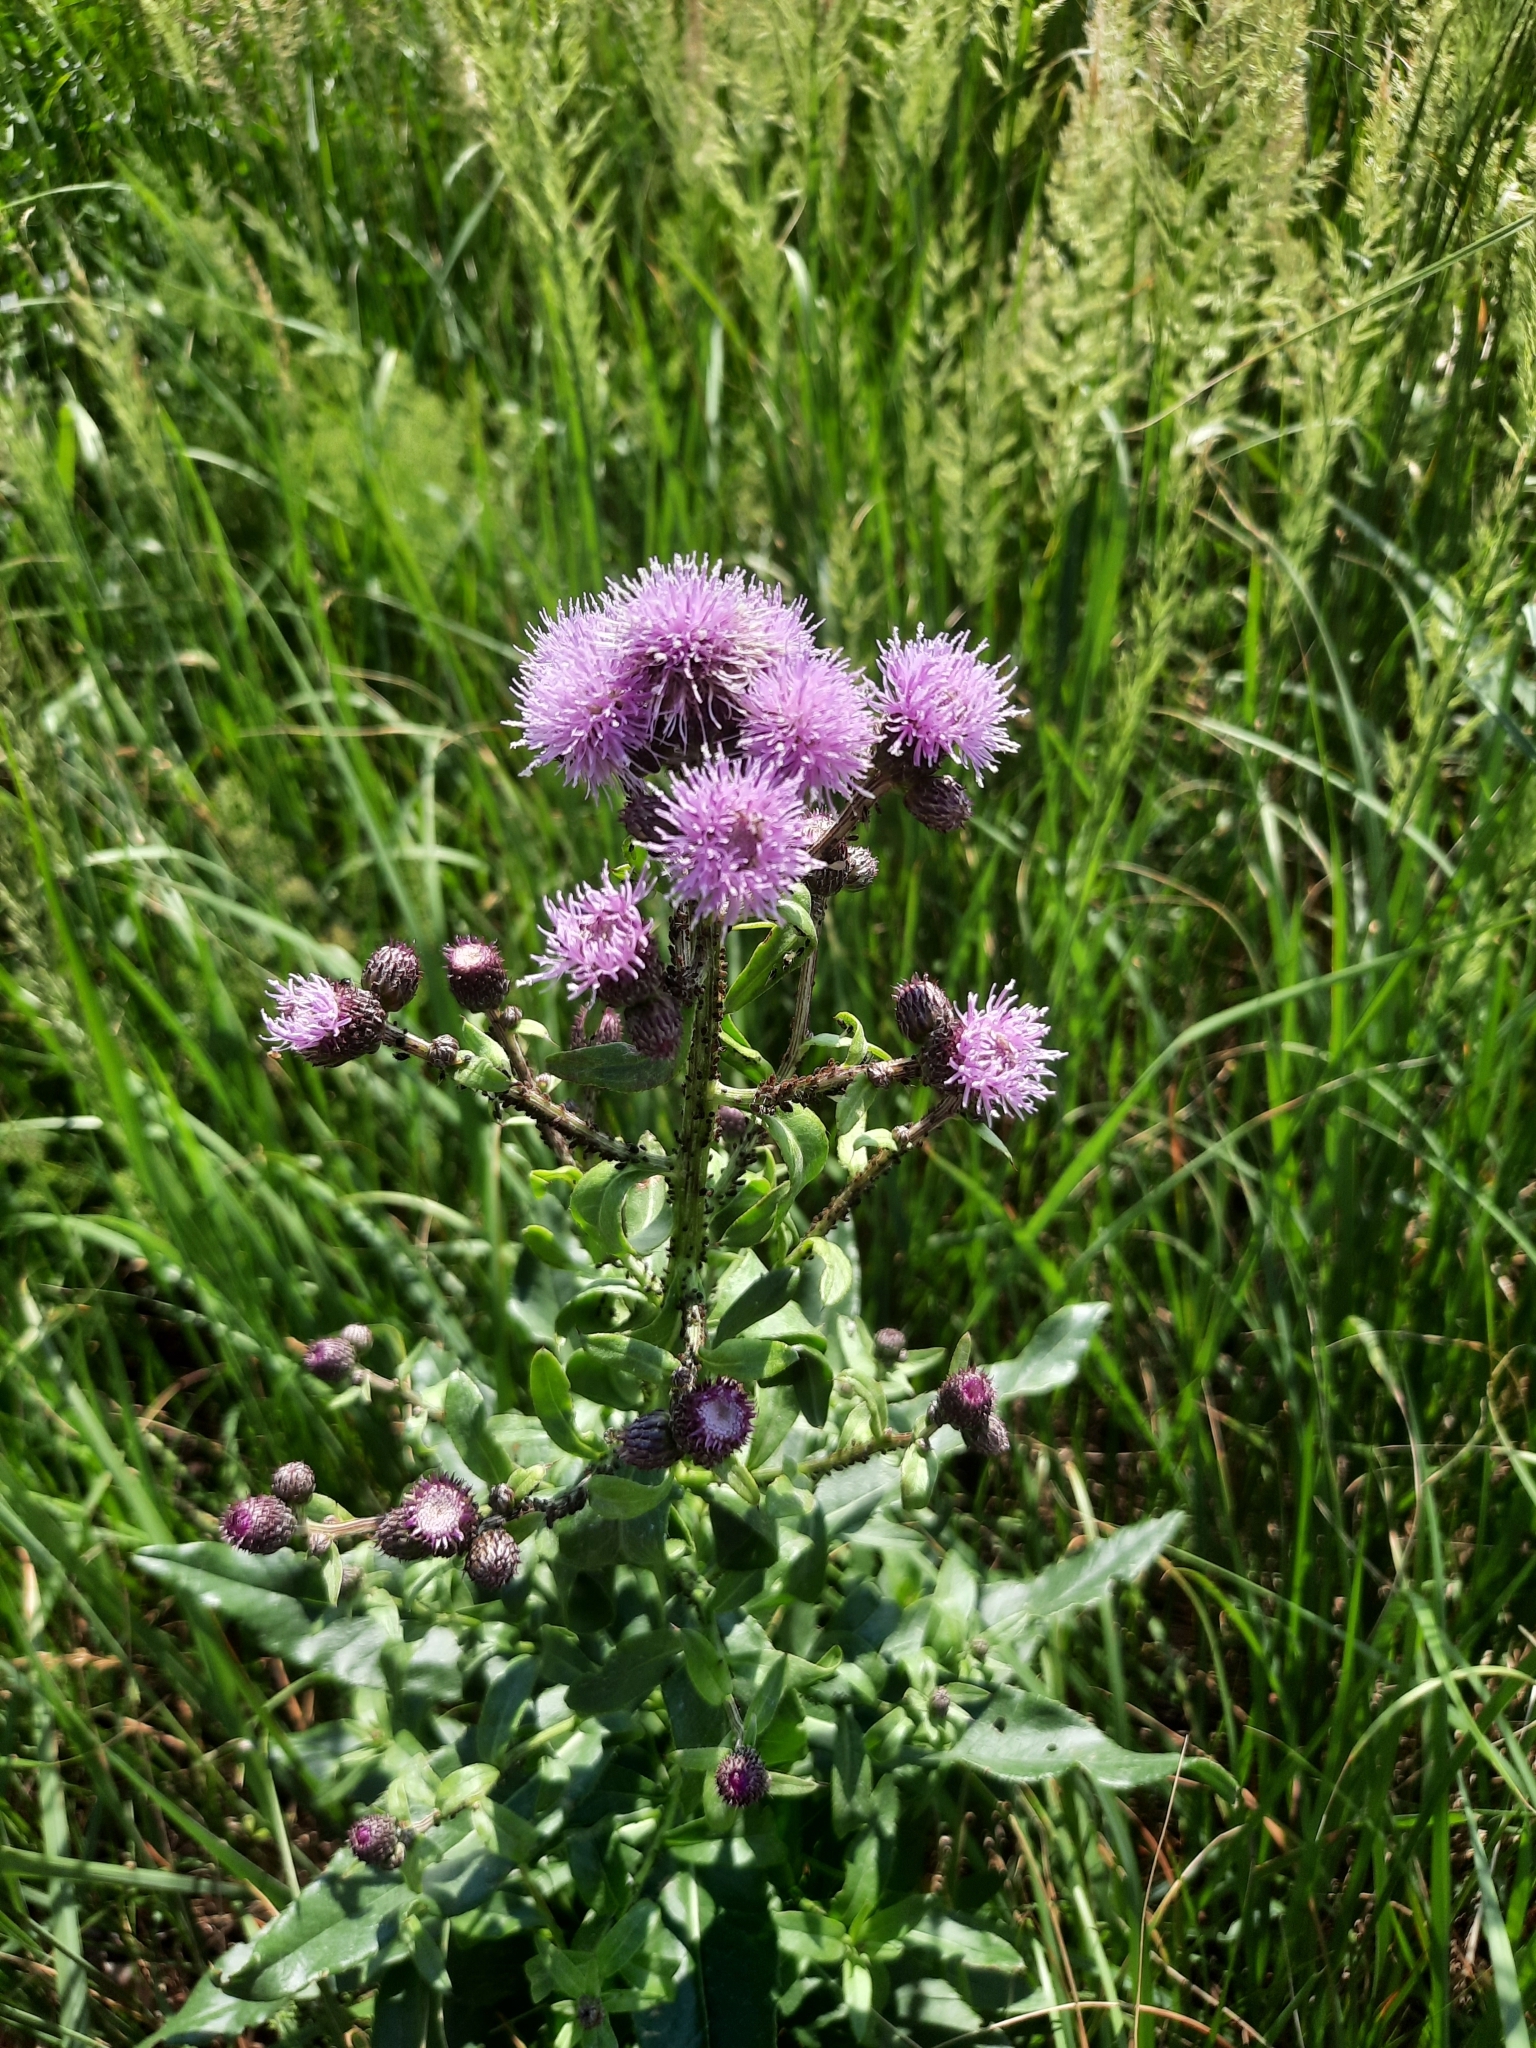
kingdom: Plantae
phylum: Tracheophyta
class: Magnoliopsida
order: Asterales
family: Asteraceae
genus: Cirsium
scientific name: Cirsium arvense
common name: Creeping thistle
